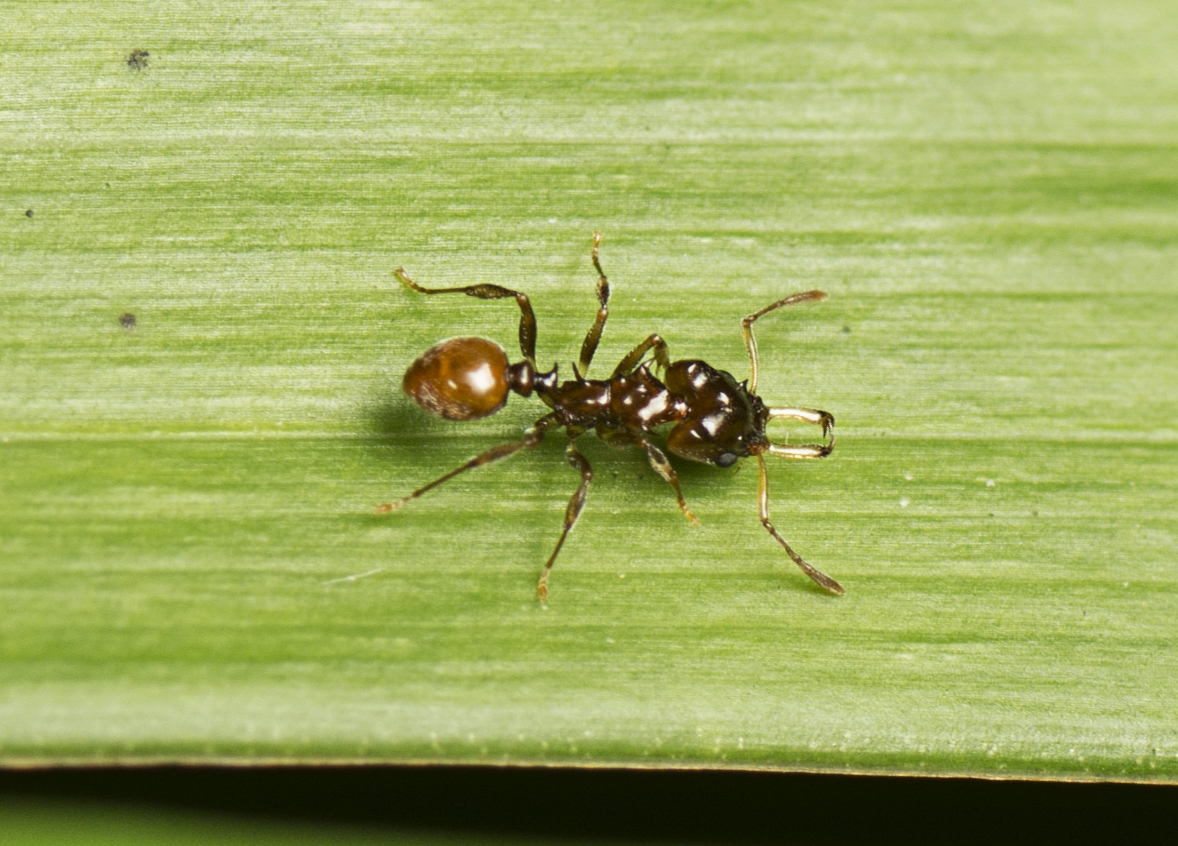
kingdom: Animalia
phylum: Arthropoda
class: Insecta
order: Hymenoptera
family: Formicidae
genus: Orectognathus
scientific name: Orectognathus phyllobates
